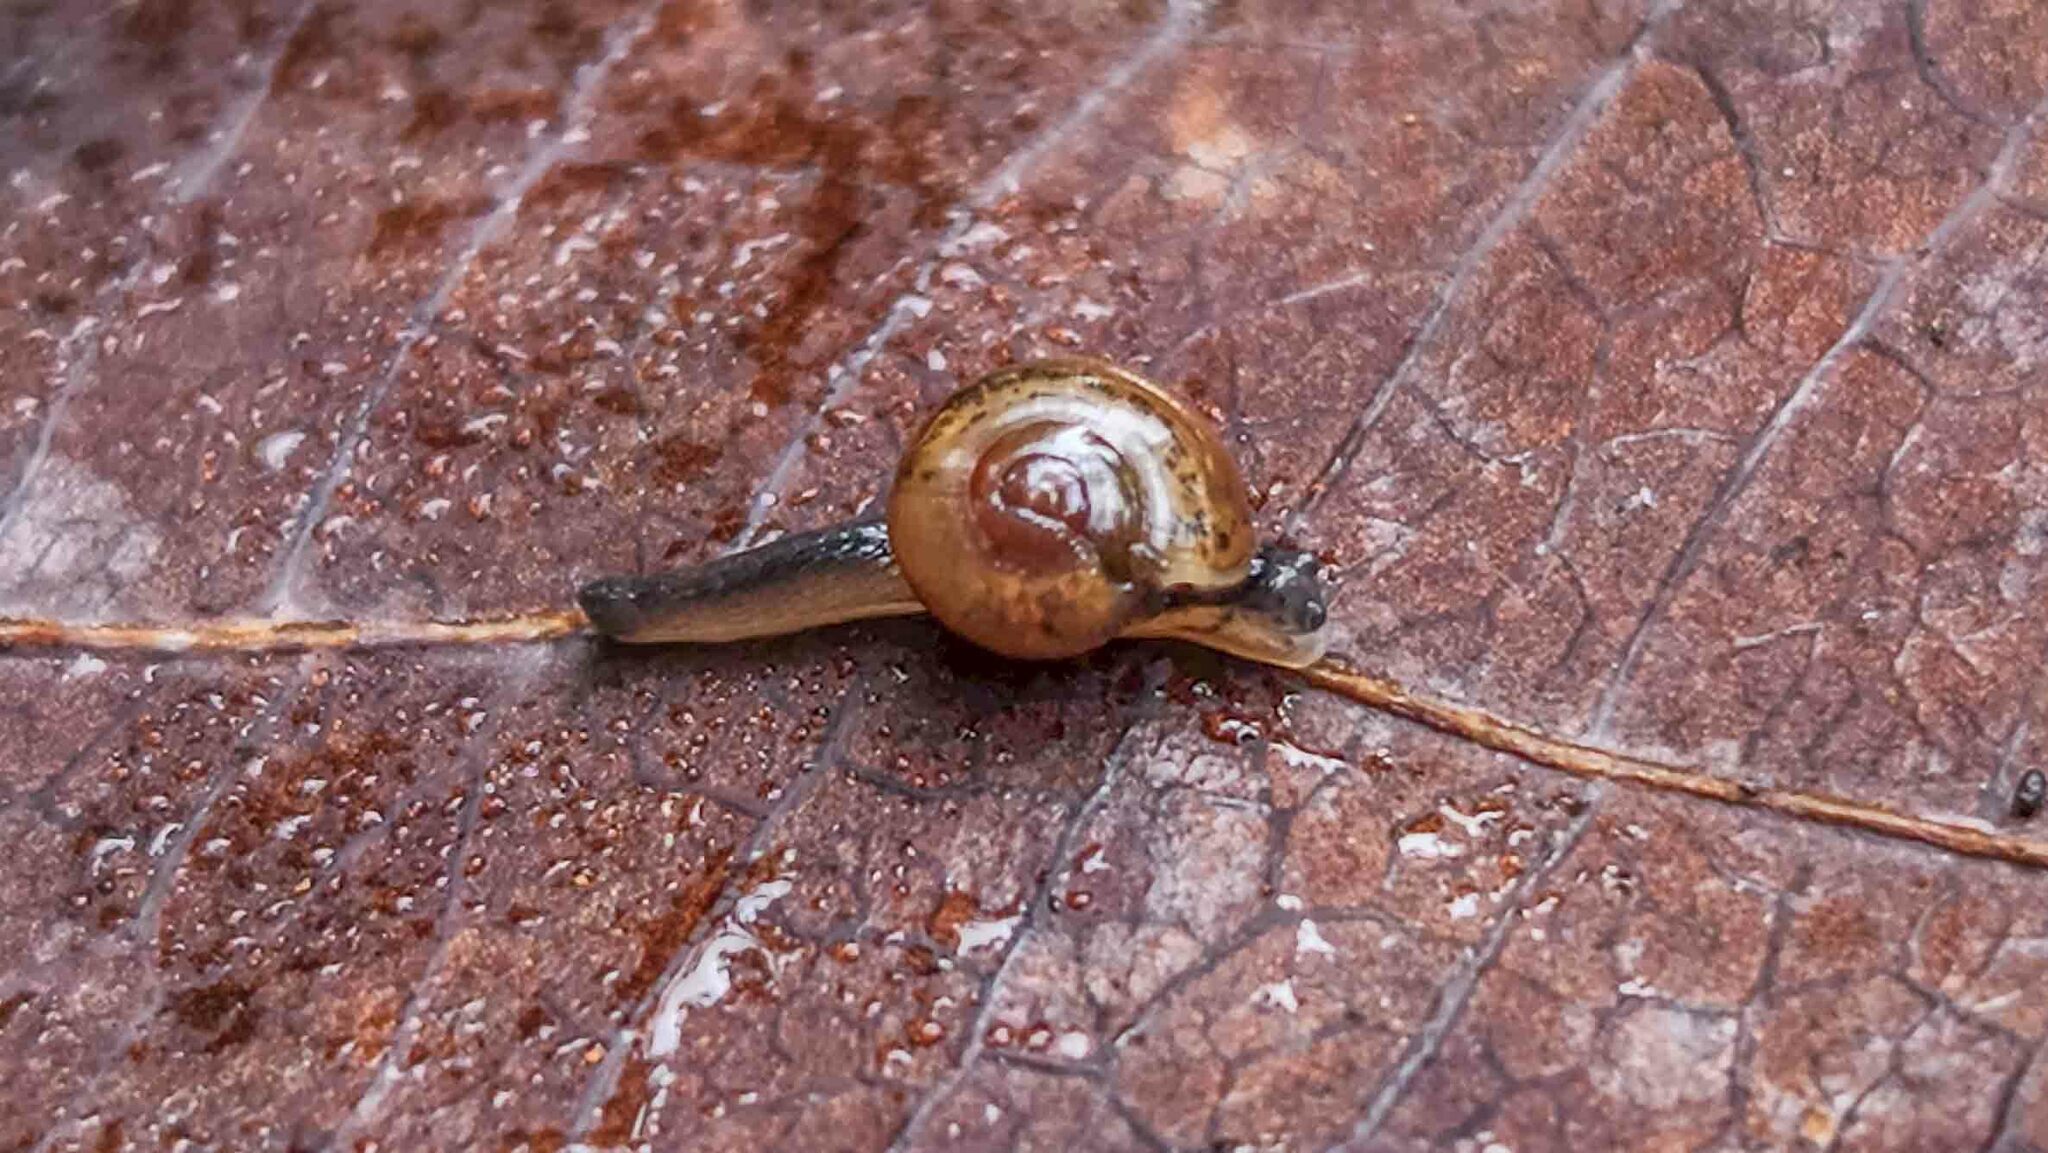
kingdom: Animalia
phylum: Mollusca
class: Gastropoda
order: Stylommatophora
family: Helicarionidae
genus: Ovachlamys
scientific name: Ovachlamys fulgens
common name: Jumping snail
